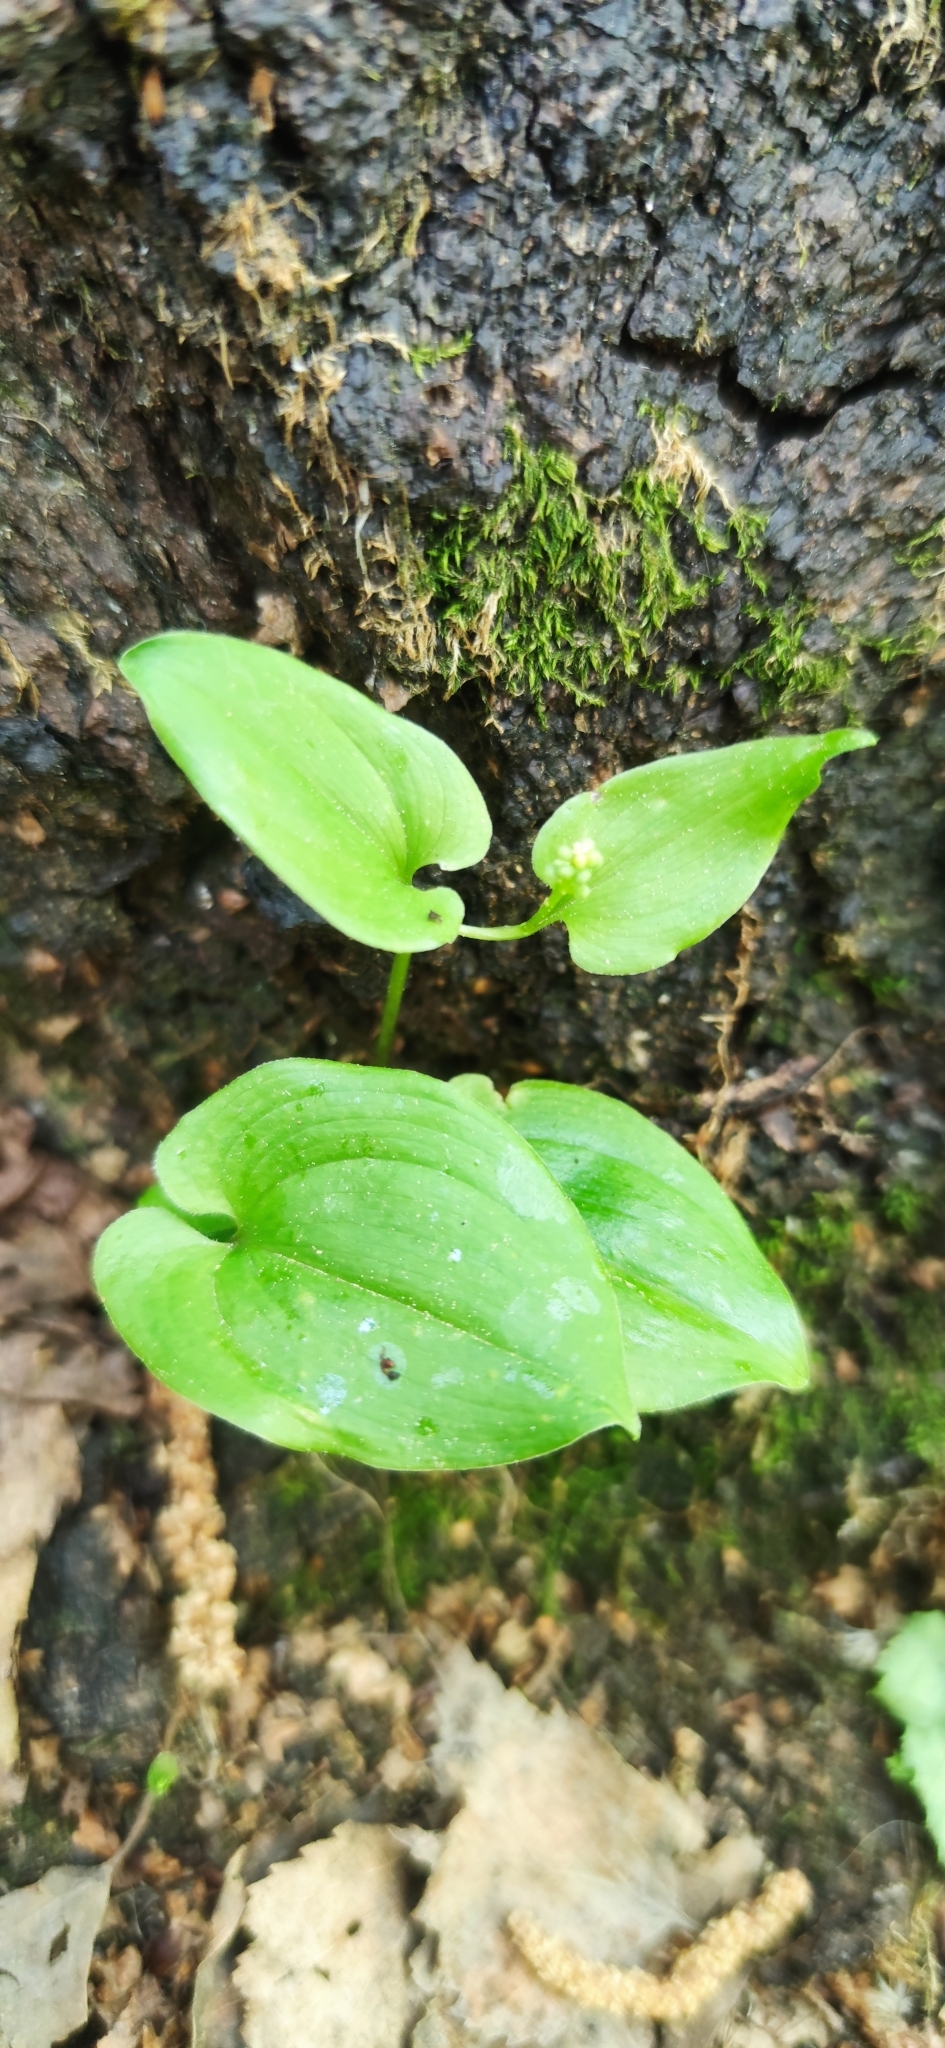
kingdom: Plantae
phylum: Tracheophyta
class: Liliopsida
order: Asparagales
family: Asparagaceae
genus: Maianthemum
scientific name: Maianthemum bifolium
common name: May lily
